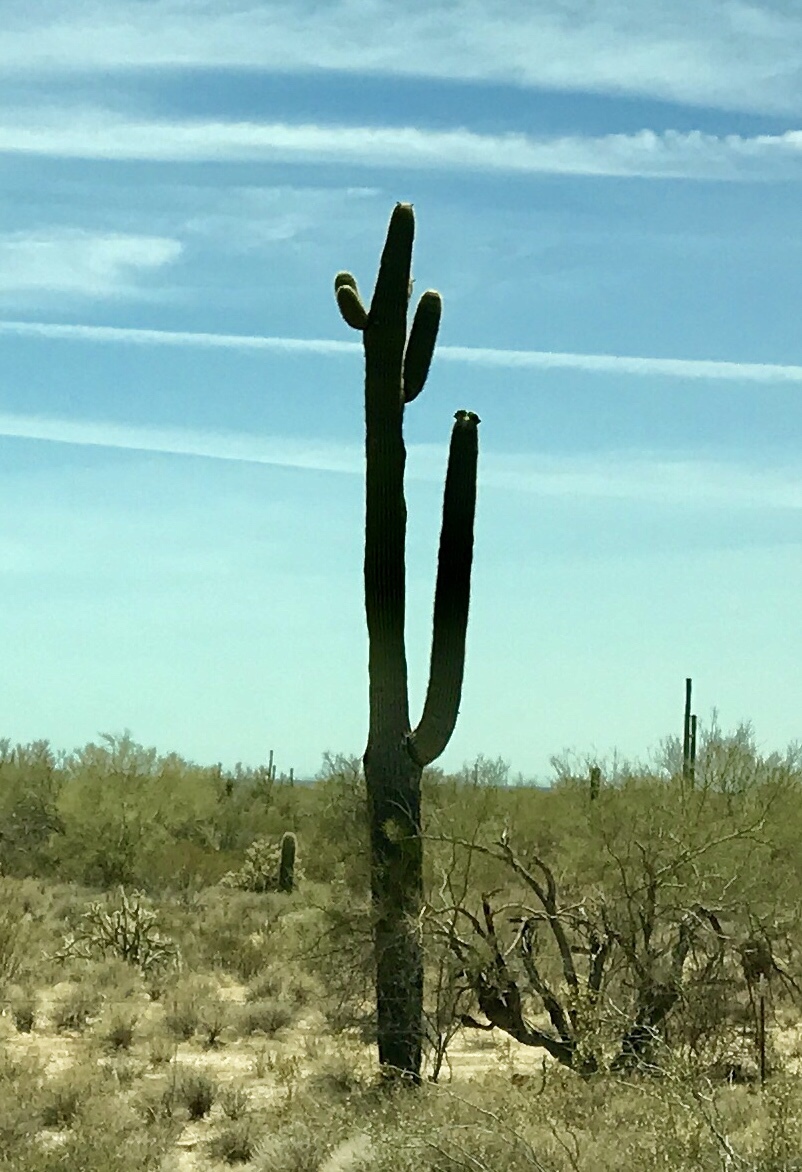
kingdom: Plantae
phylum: Tracheophyta
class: Magnoliopsida
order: Caryophyllales
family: Cactaceae
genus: Carnegiea
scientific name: Carnegiea gigantea
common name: Saguaro
